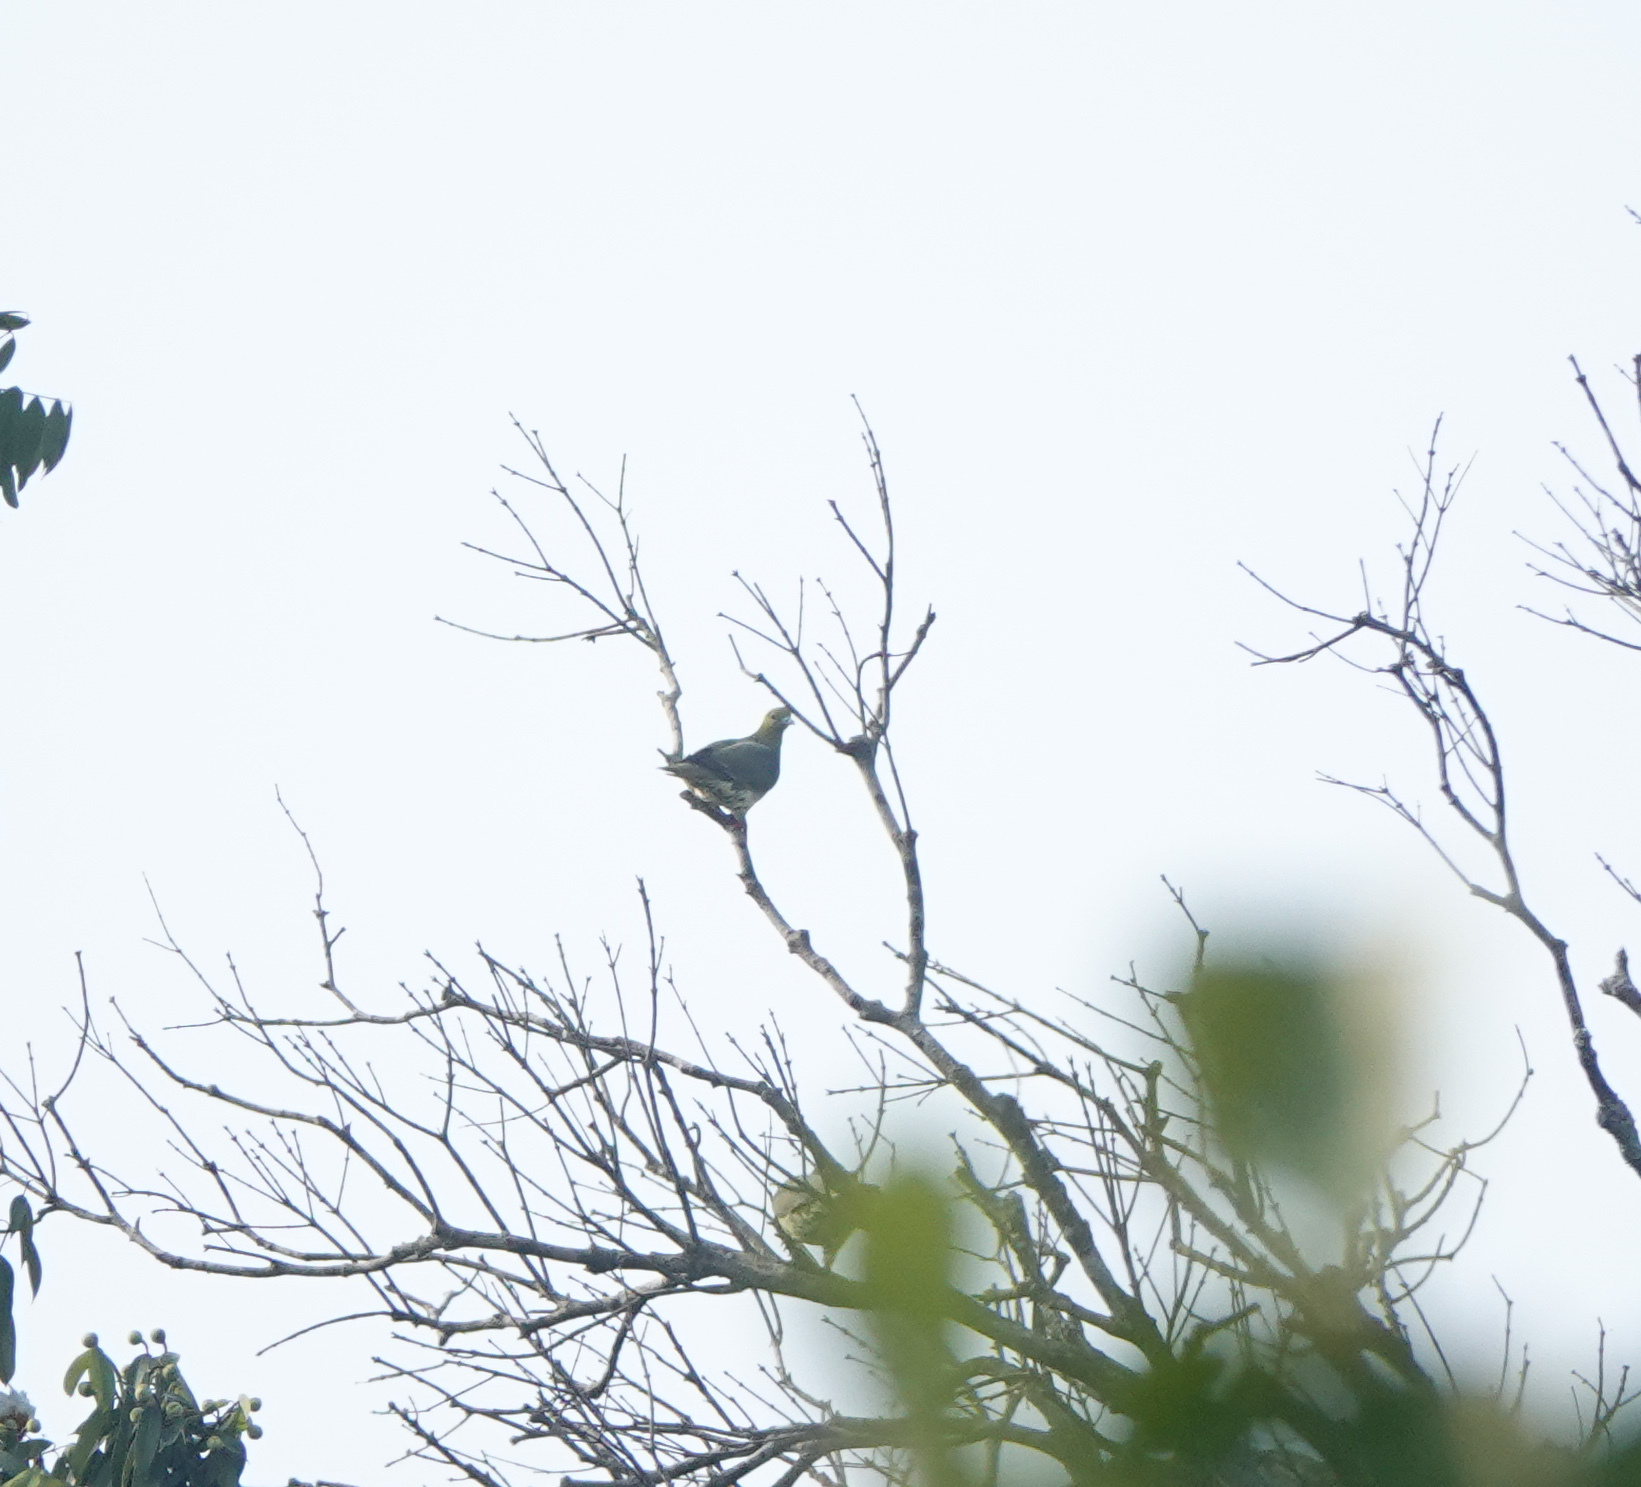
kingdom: Animalia
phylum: Chordata
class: Aves
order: Columbiformes
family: Columbidae
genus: Treron
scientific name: Treron curvirostra
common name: Thick-billed green pigeon
